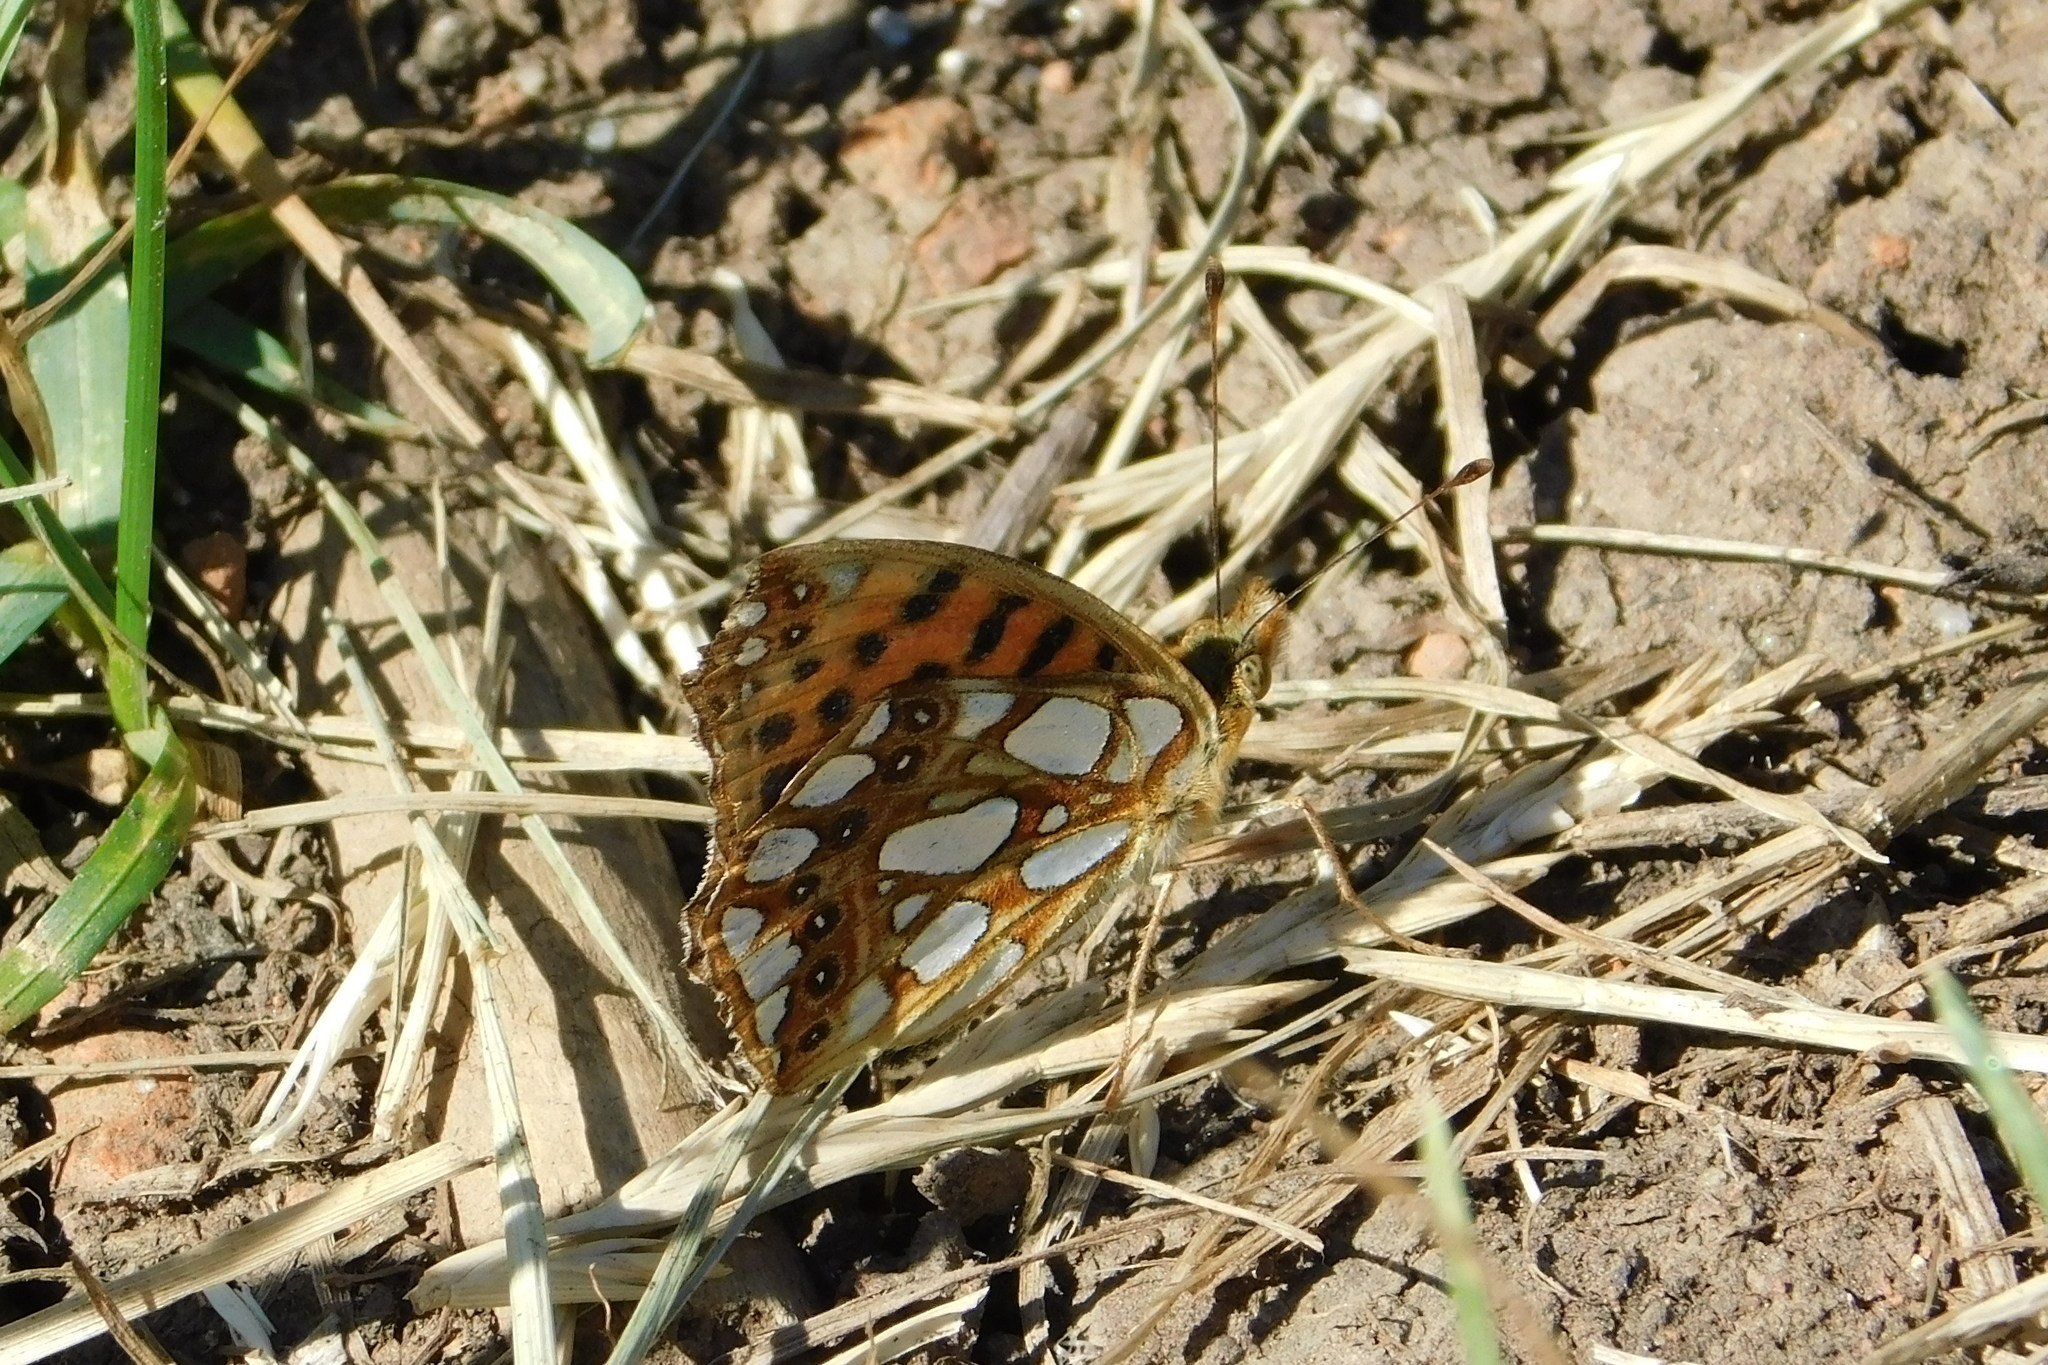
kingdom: Animalia
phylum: Arthropoda
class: Insecta
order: Lepidoptera
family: Nymphalidae
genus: Issoria
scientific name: Issoria lathonia
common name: Queen of spain fritillary
